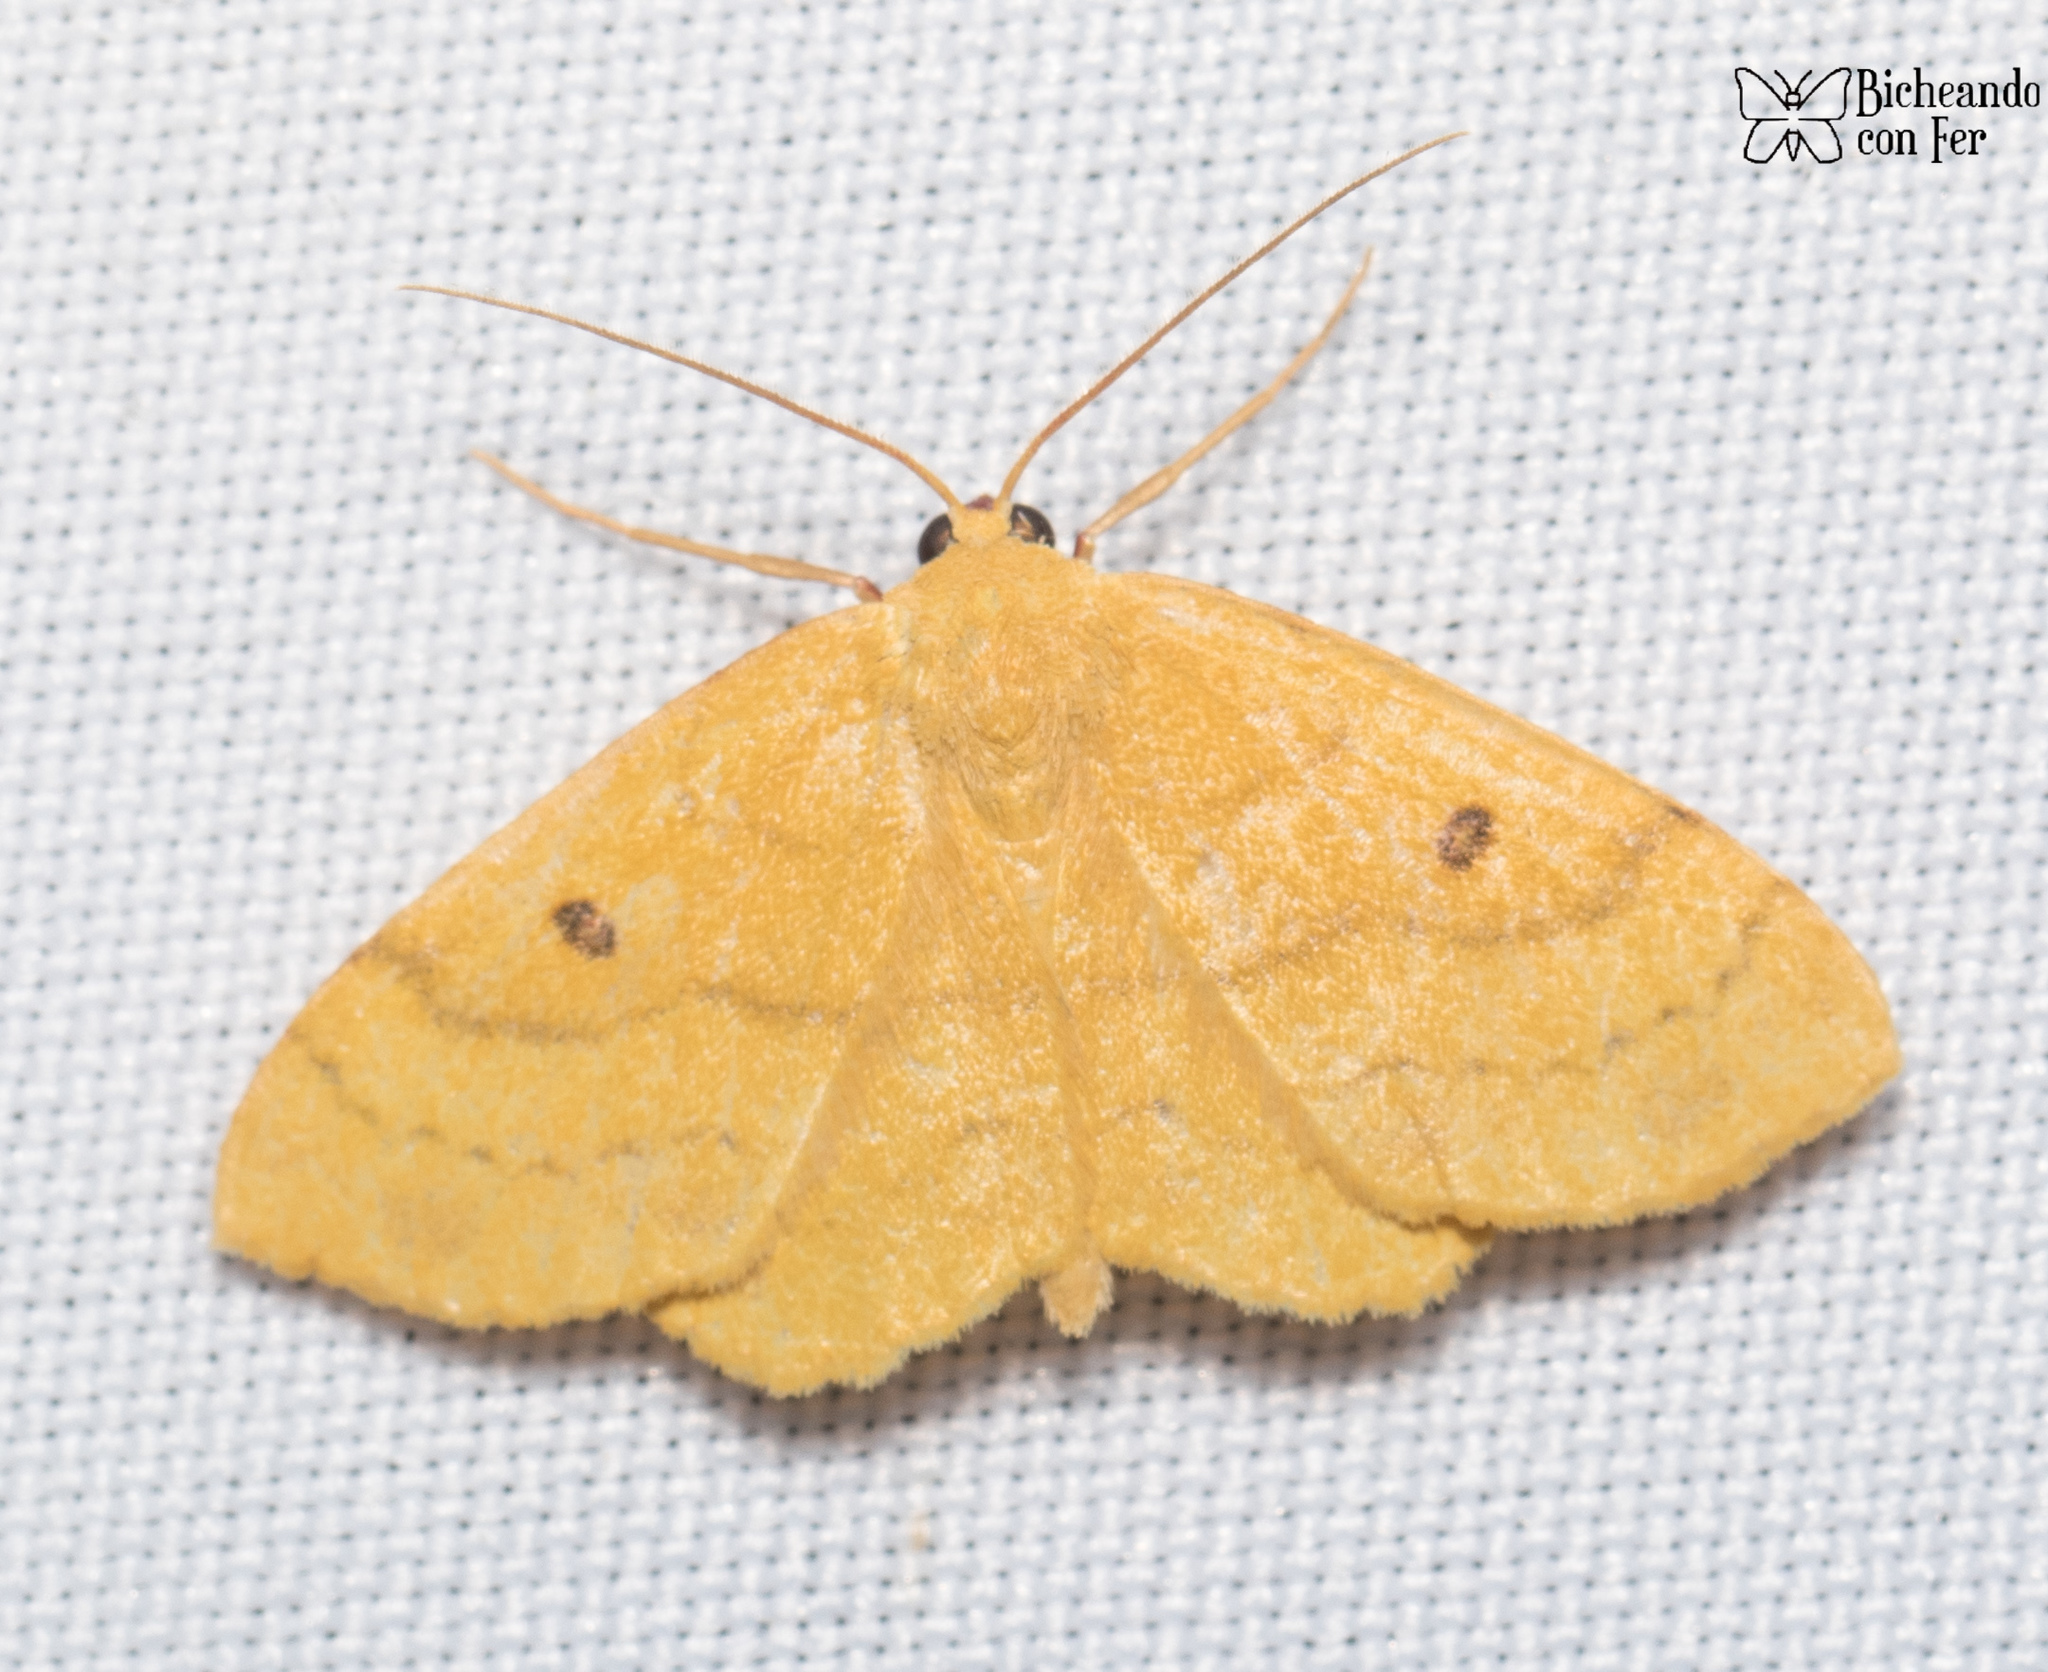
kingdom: Animalia
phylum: Arthropoda
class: Insecta
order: Lepidoptera
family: Geometridae
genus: Semaeopus
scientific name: Semaeopus ella
